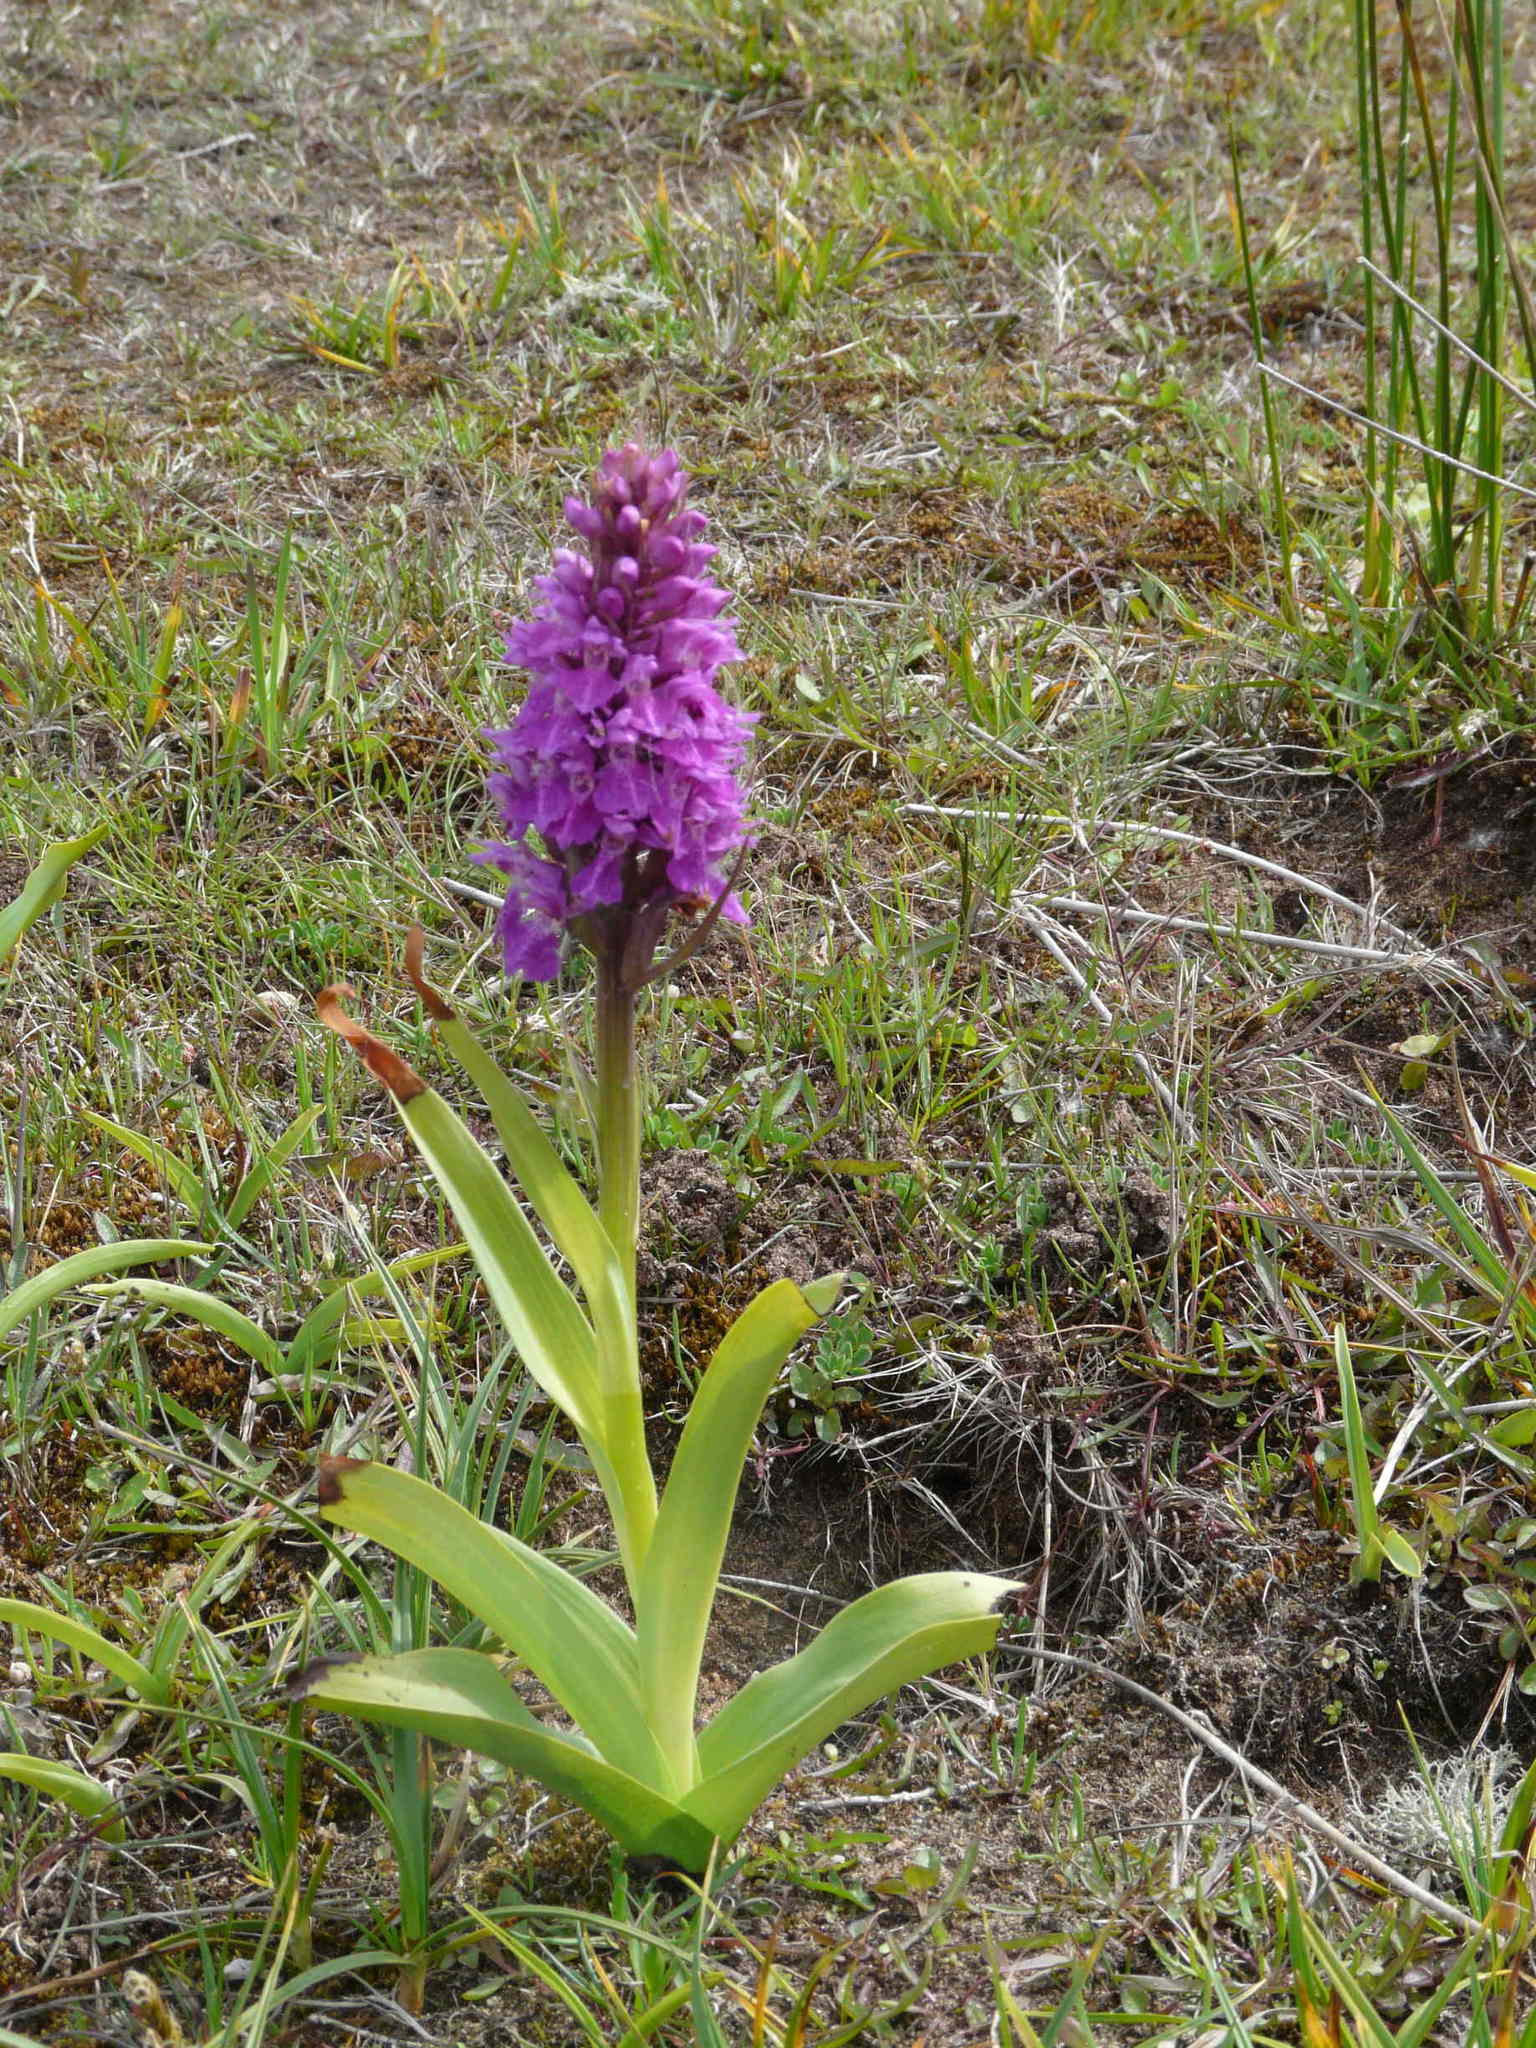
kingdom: Plantae
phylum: Tracheophyta
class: Liliopsida
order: Asparagales
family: Orchidaceae
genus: Dactylorhiza
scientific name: Dactylorhiza majalis
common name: Marsh orchid
